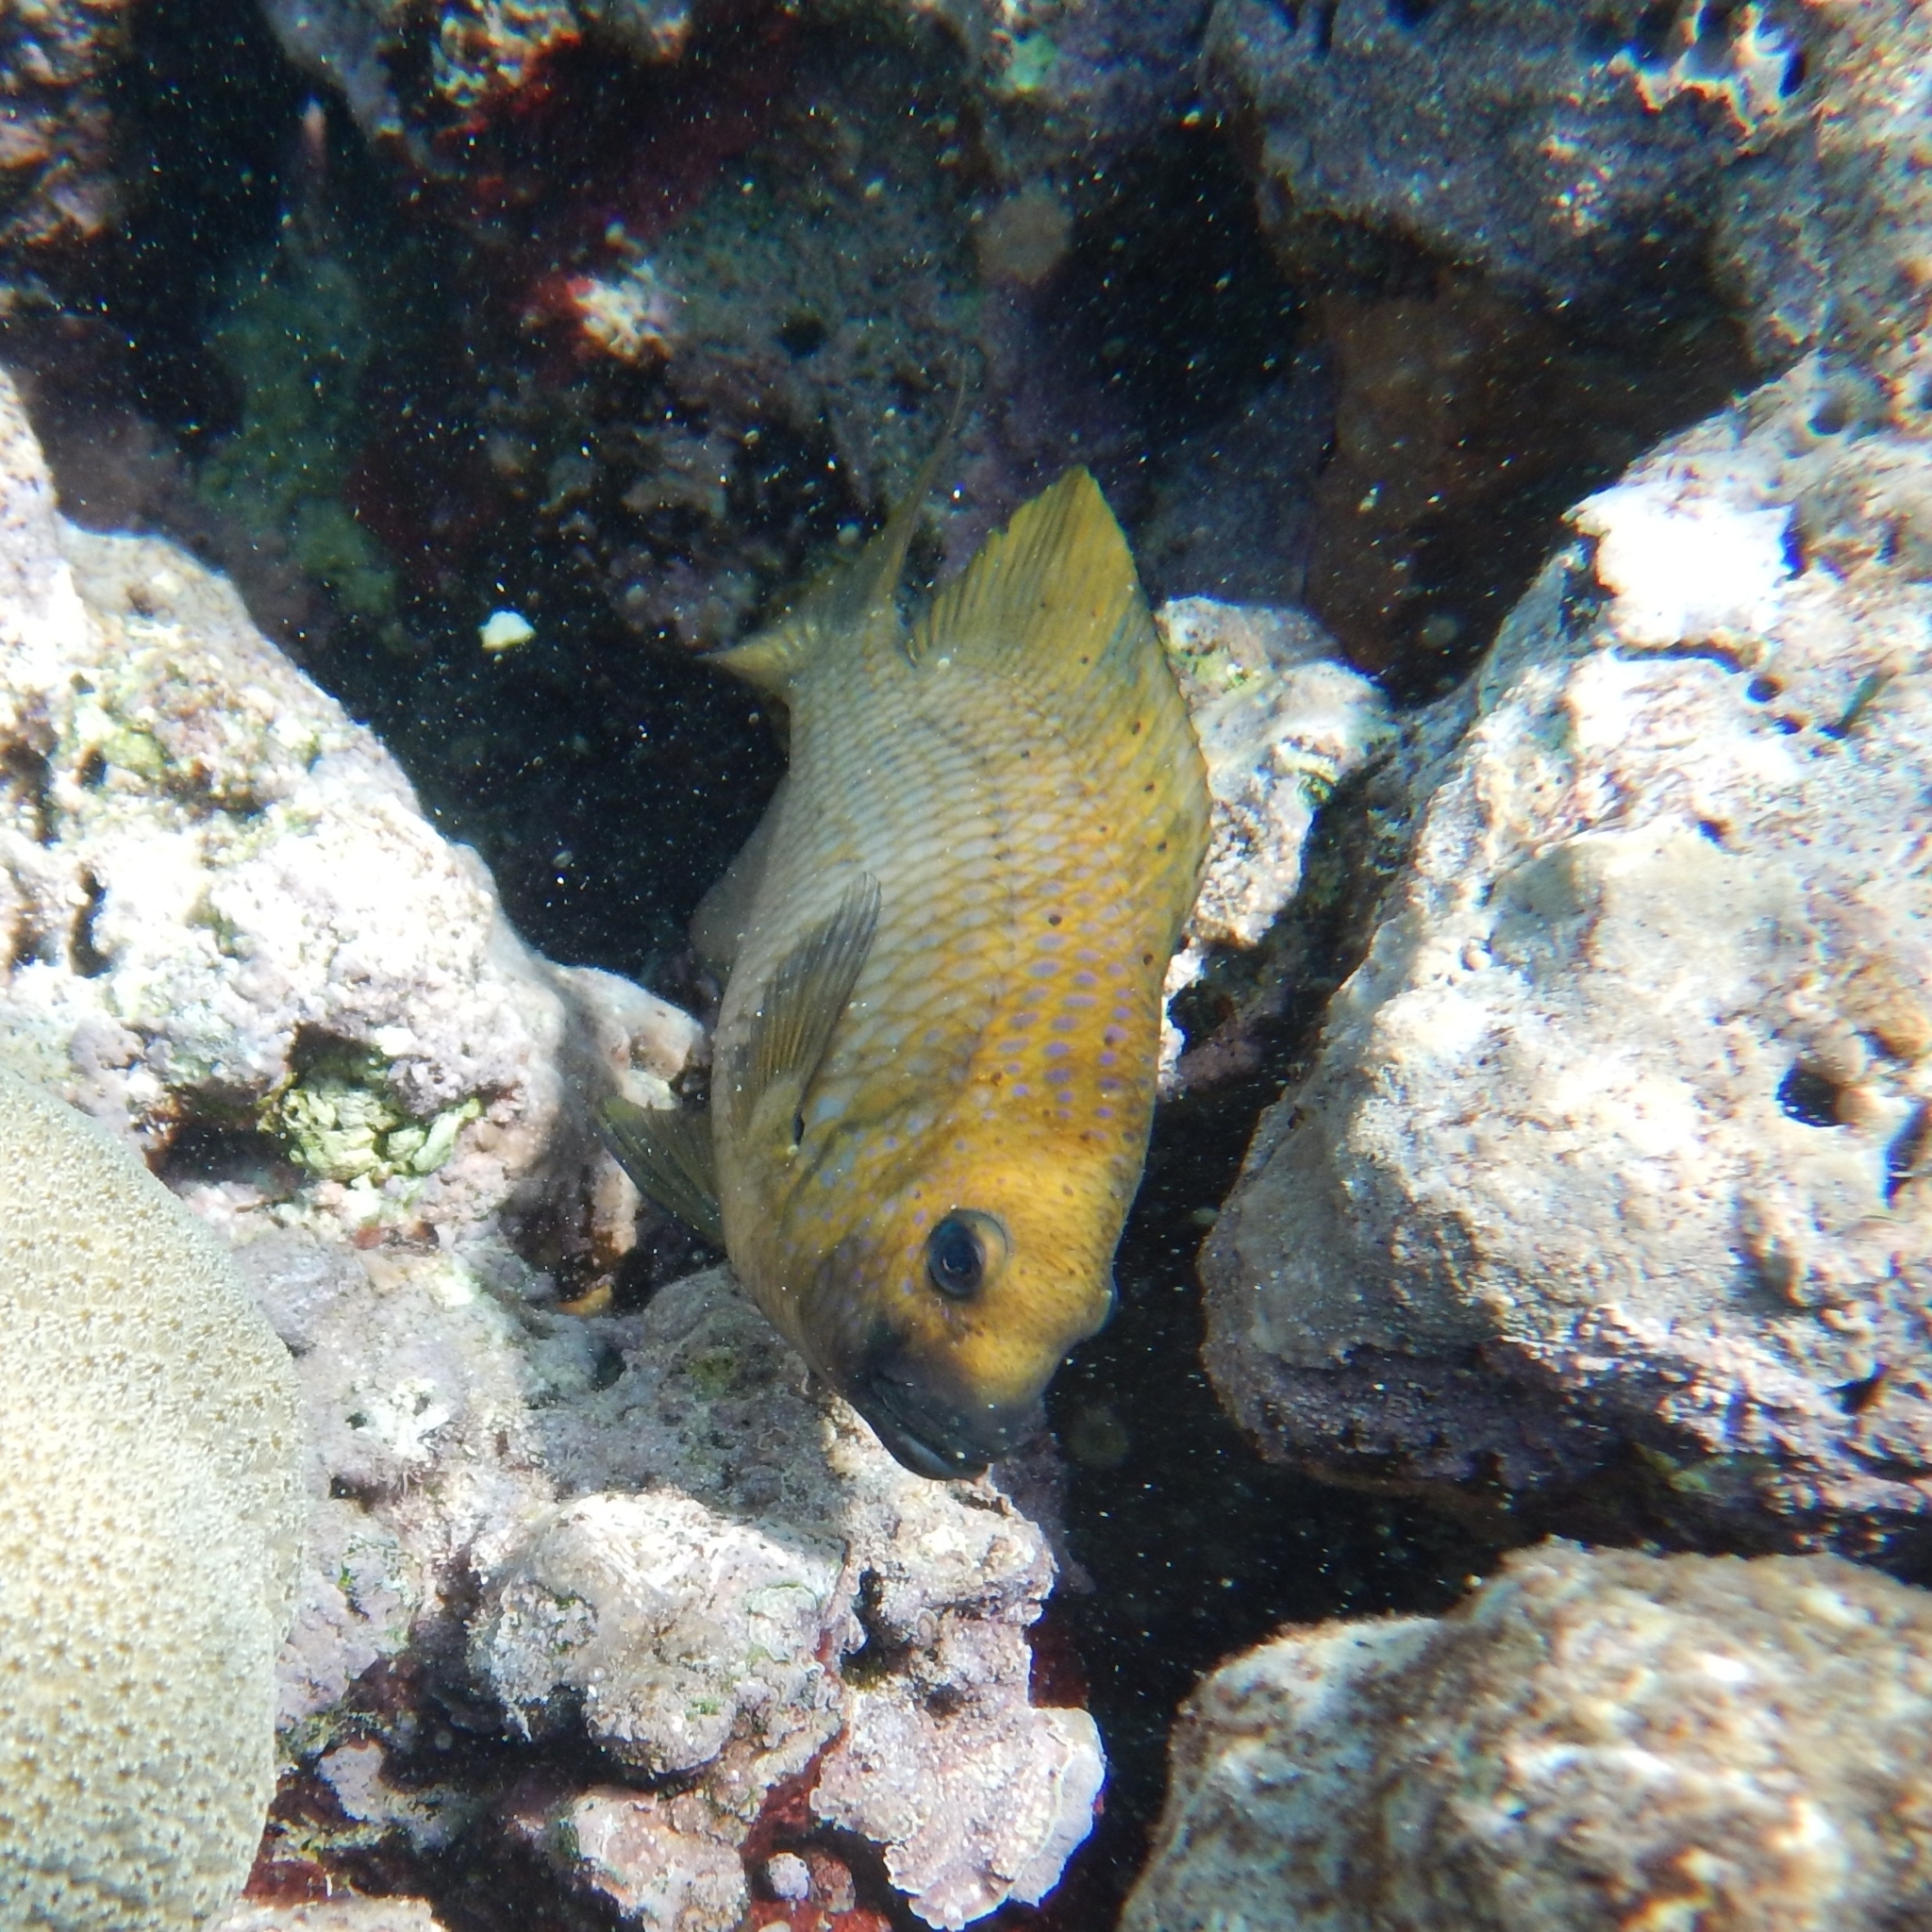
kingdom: Animalia
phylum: Chordata
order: Perciformes
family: Pomacentridae
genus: Microspathodon
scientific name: Microspathodon chrysurus
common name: Yellowtail damselfish
